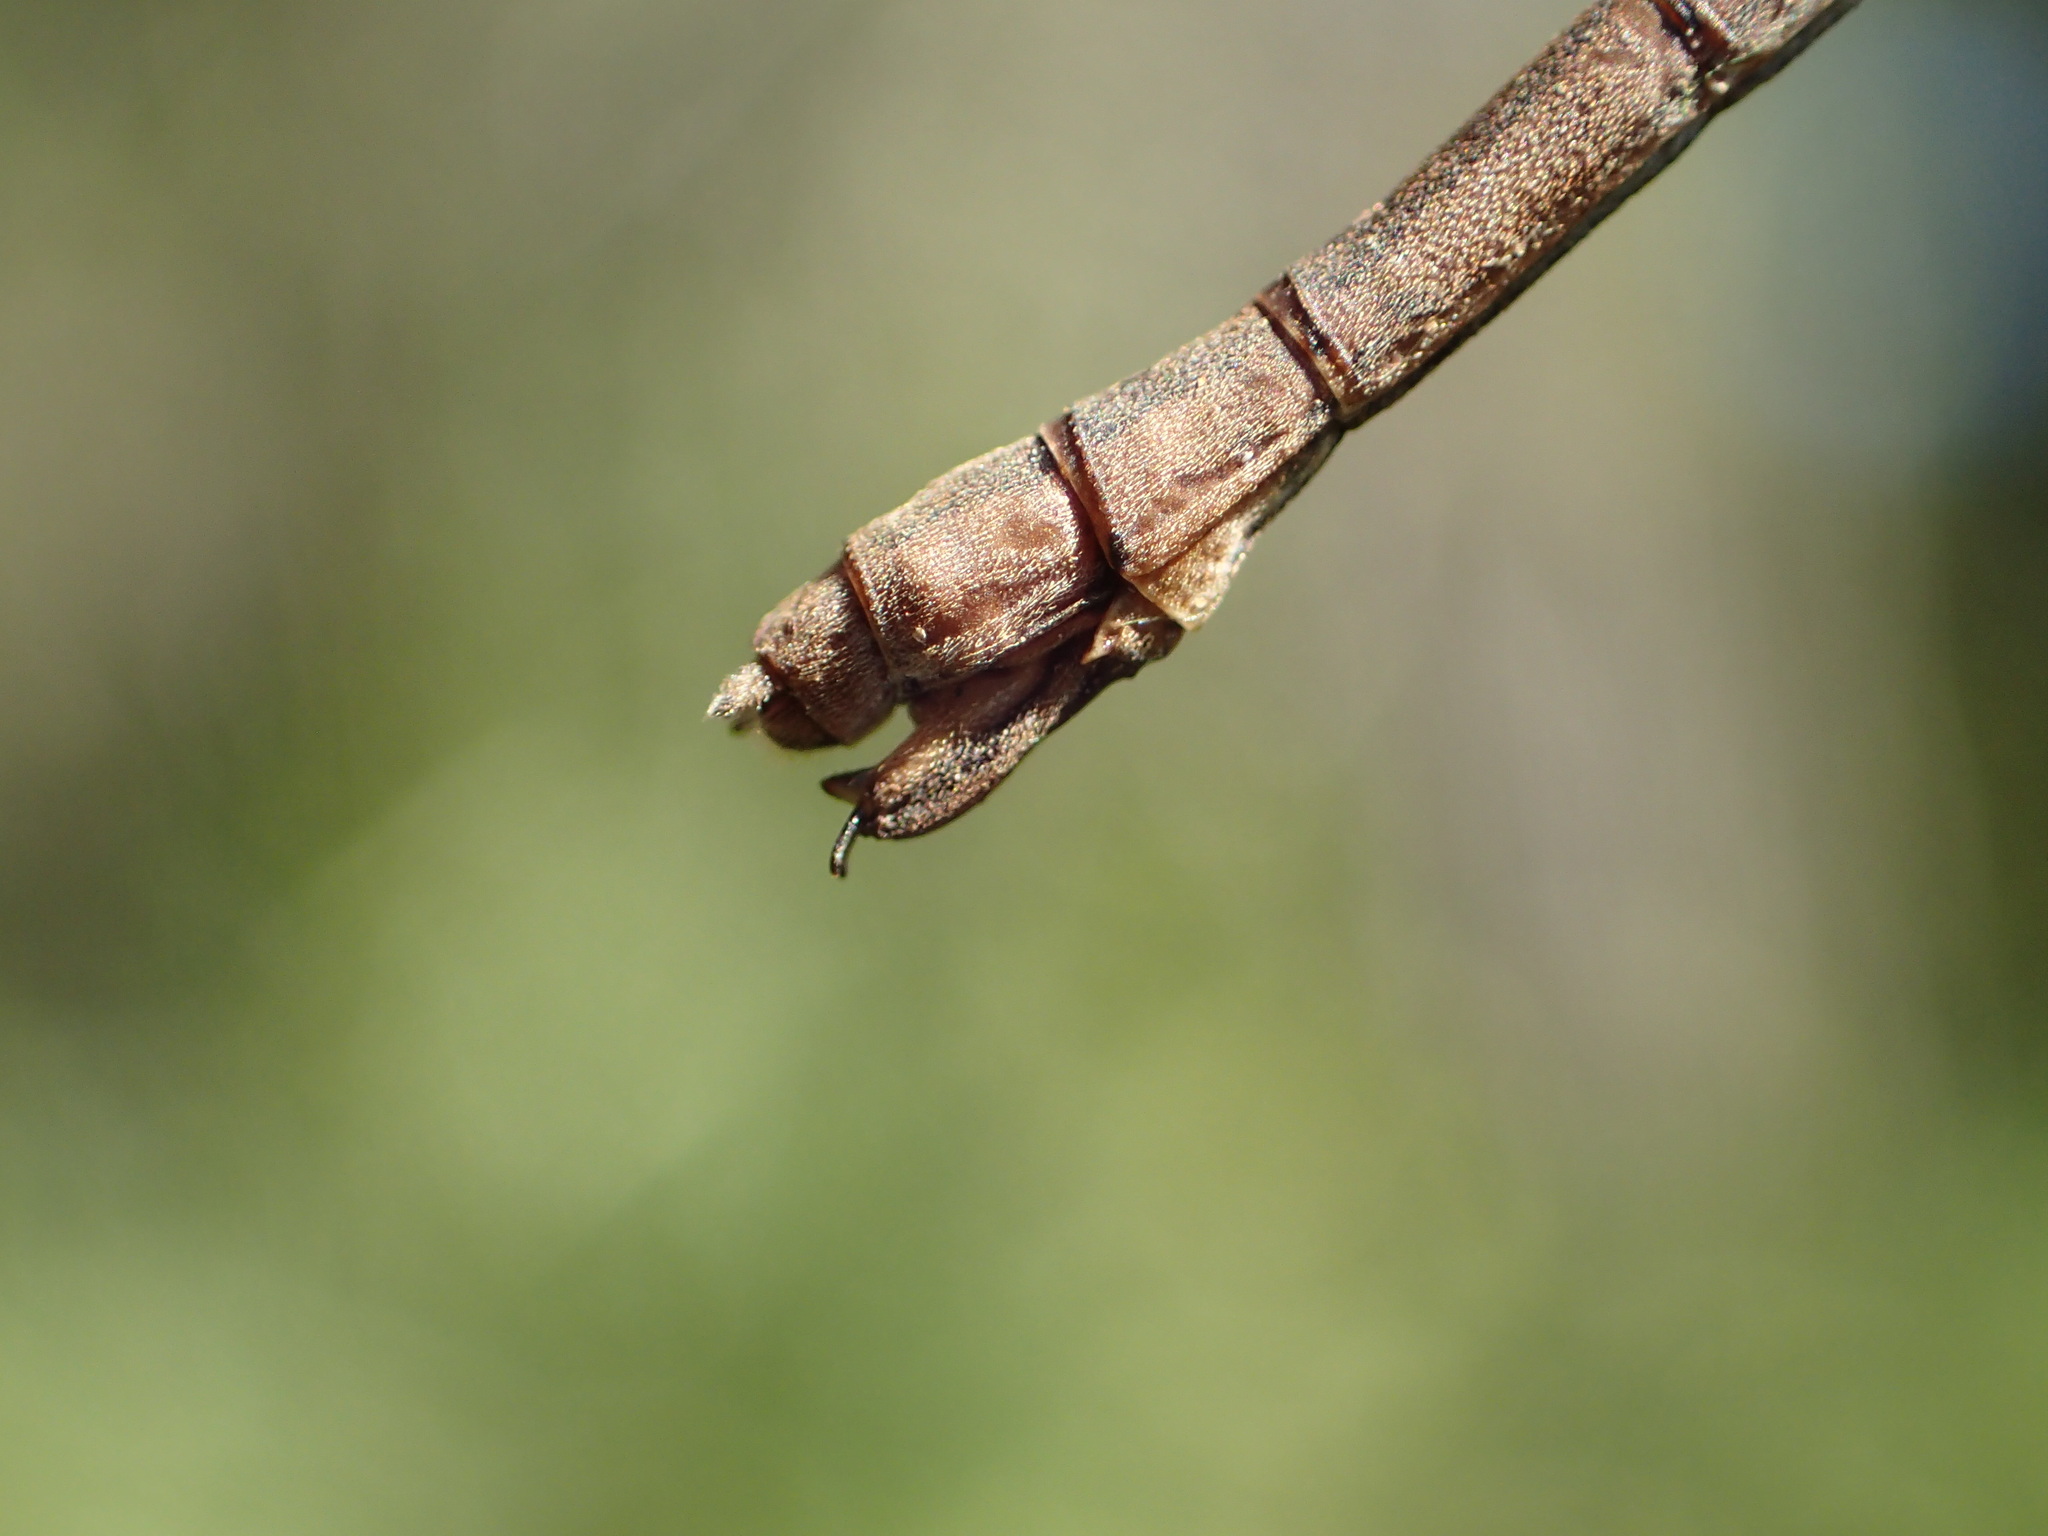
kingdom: Animalia
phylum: Arthropoda
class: Insecta
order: Odonata
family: Lestidae
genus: Lestes
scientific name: Lestes disjunctus
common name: Northern spreadwing
